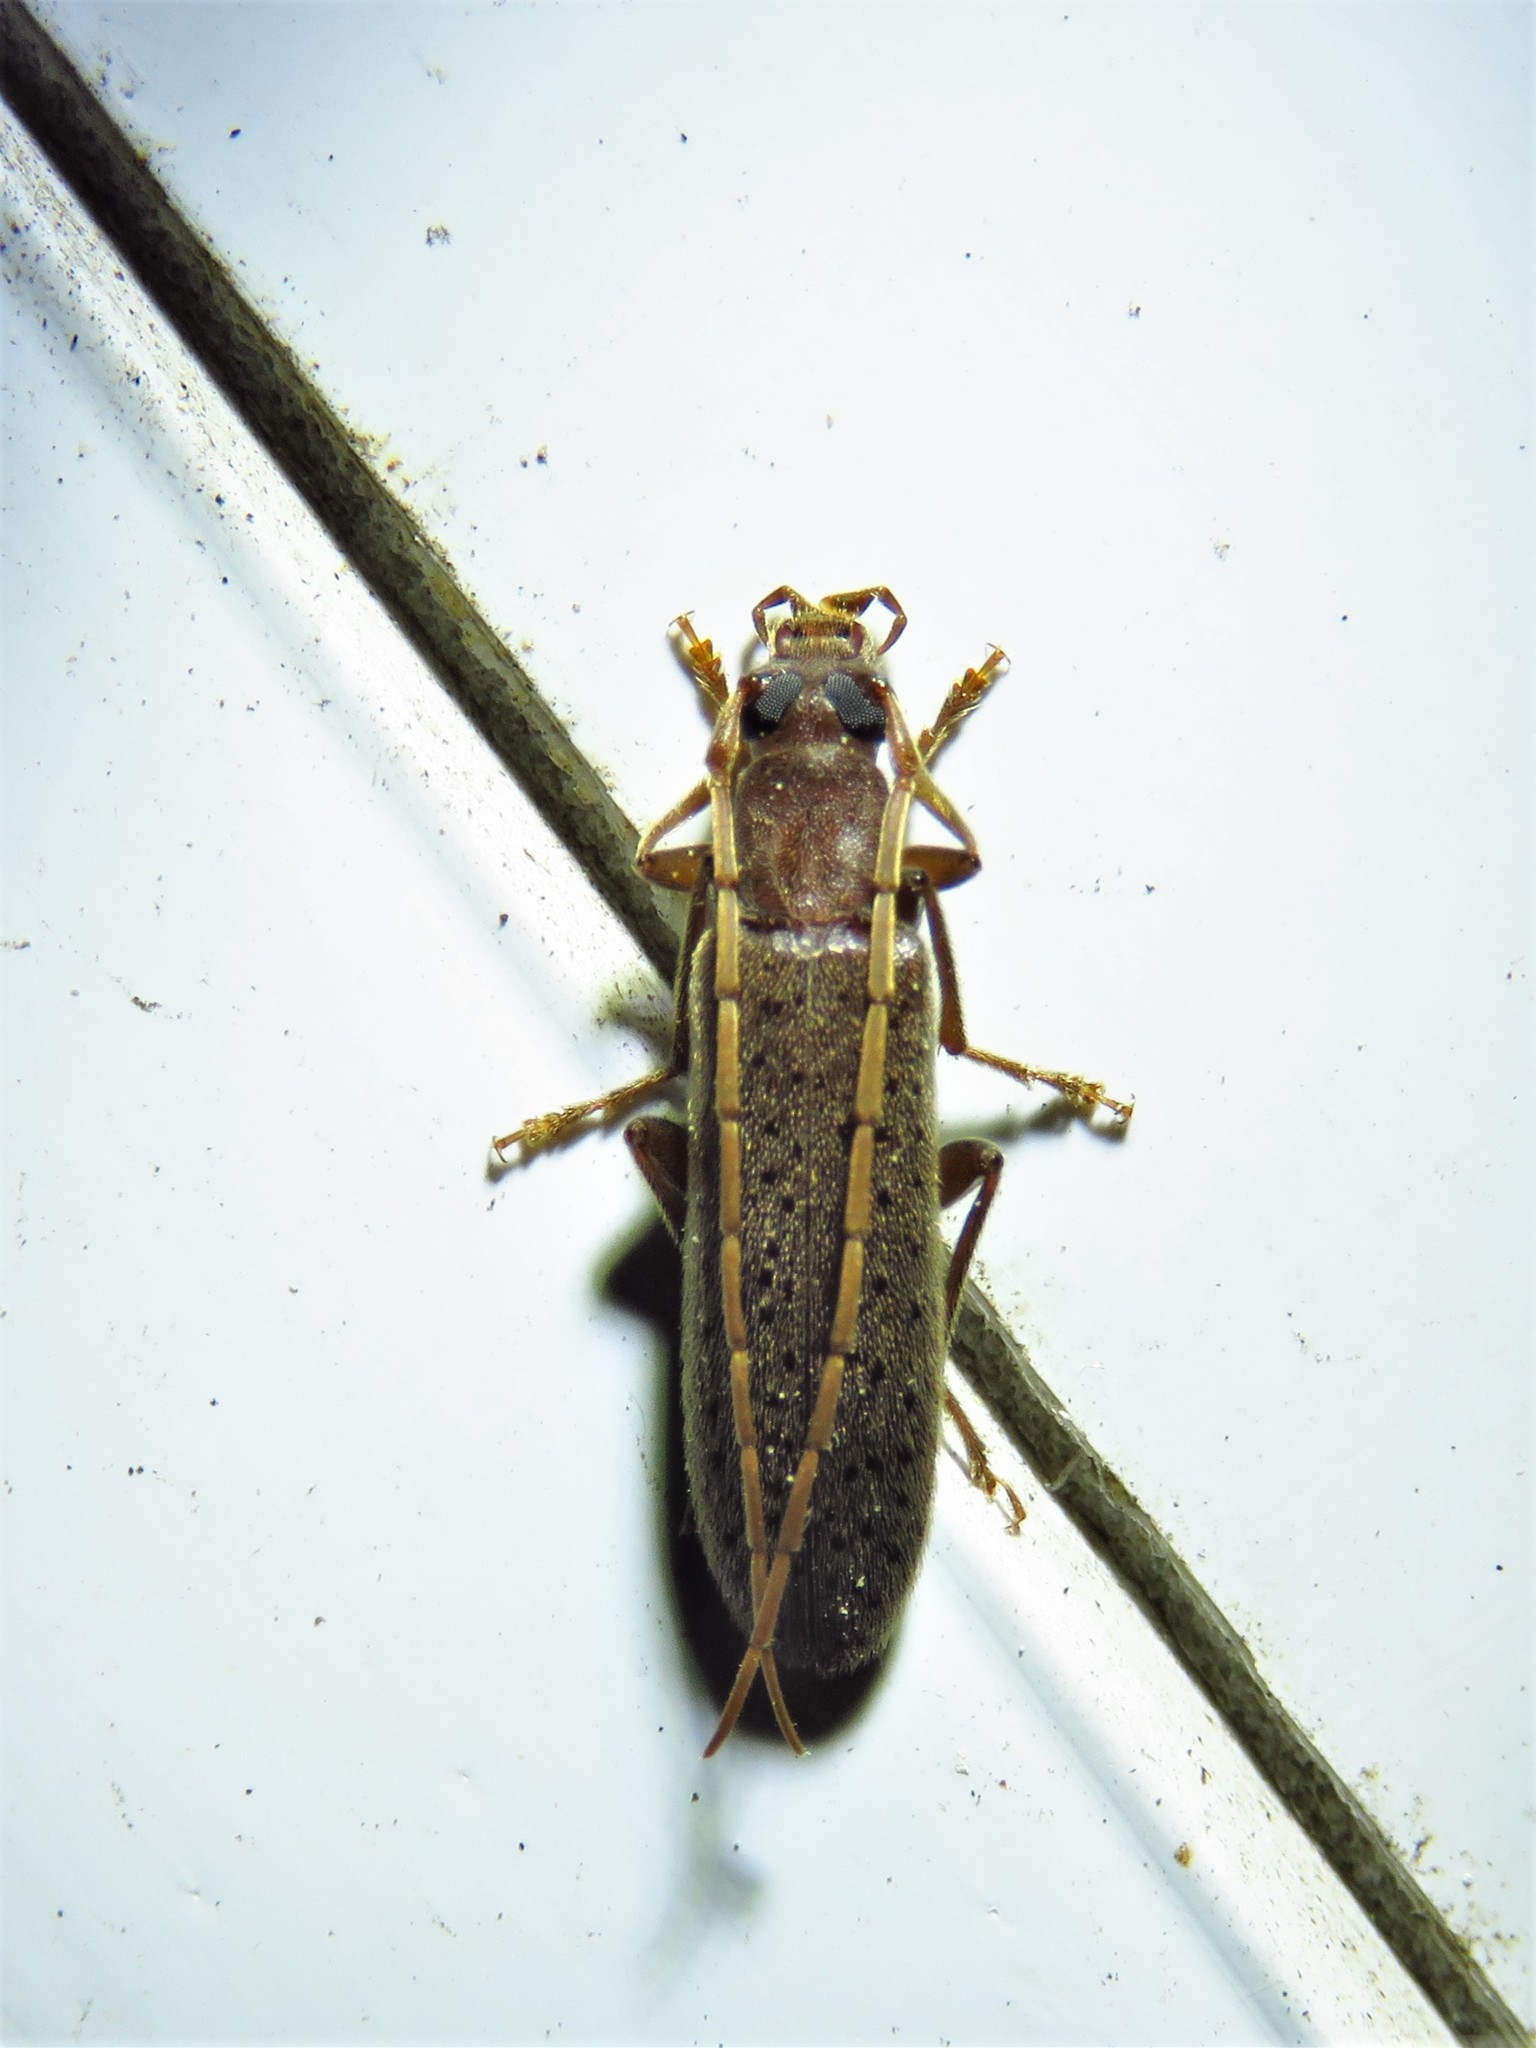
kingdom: Animalia
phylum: Arthropoda
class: Insecta
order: Coleoptera
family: Oedemeridae
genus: Sparedrus
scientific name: Sparedrus aspersus
